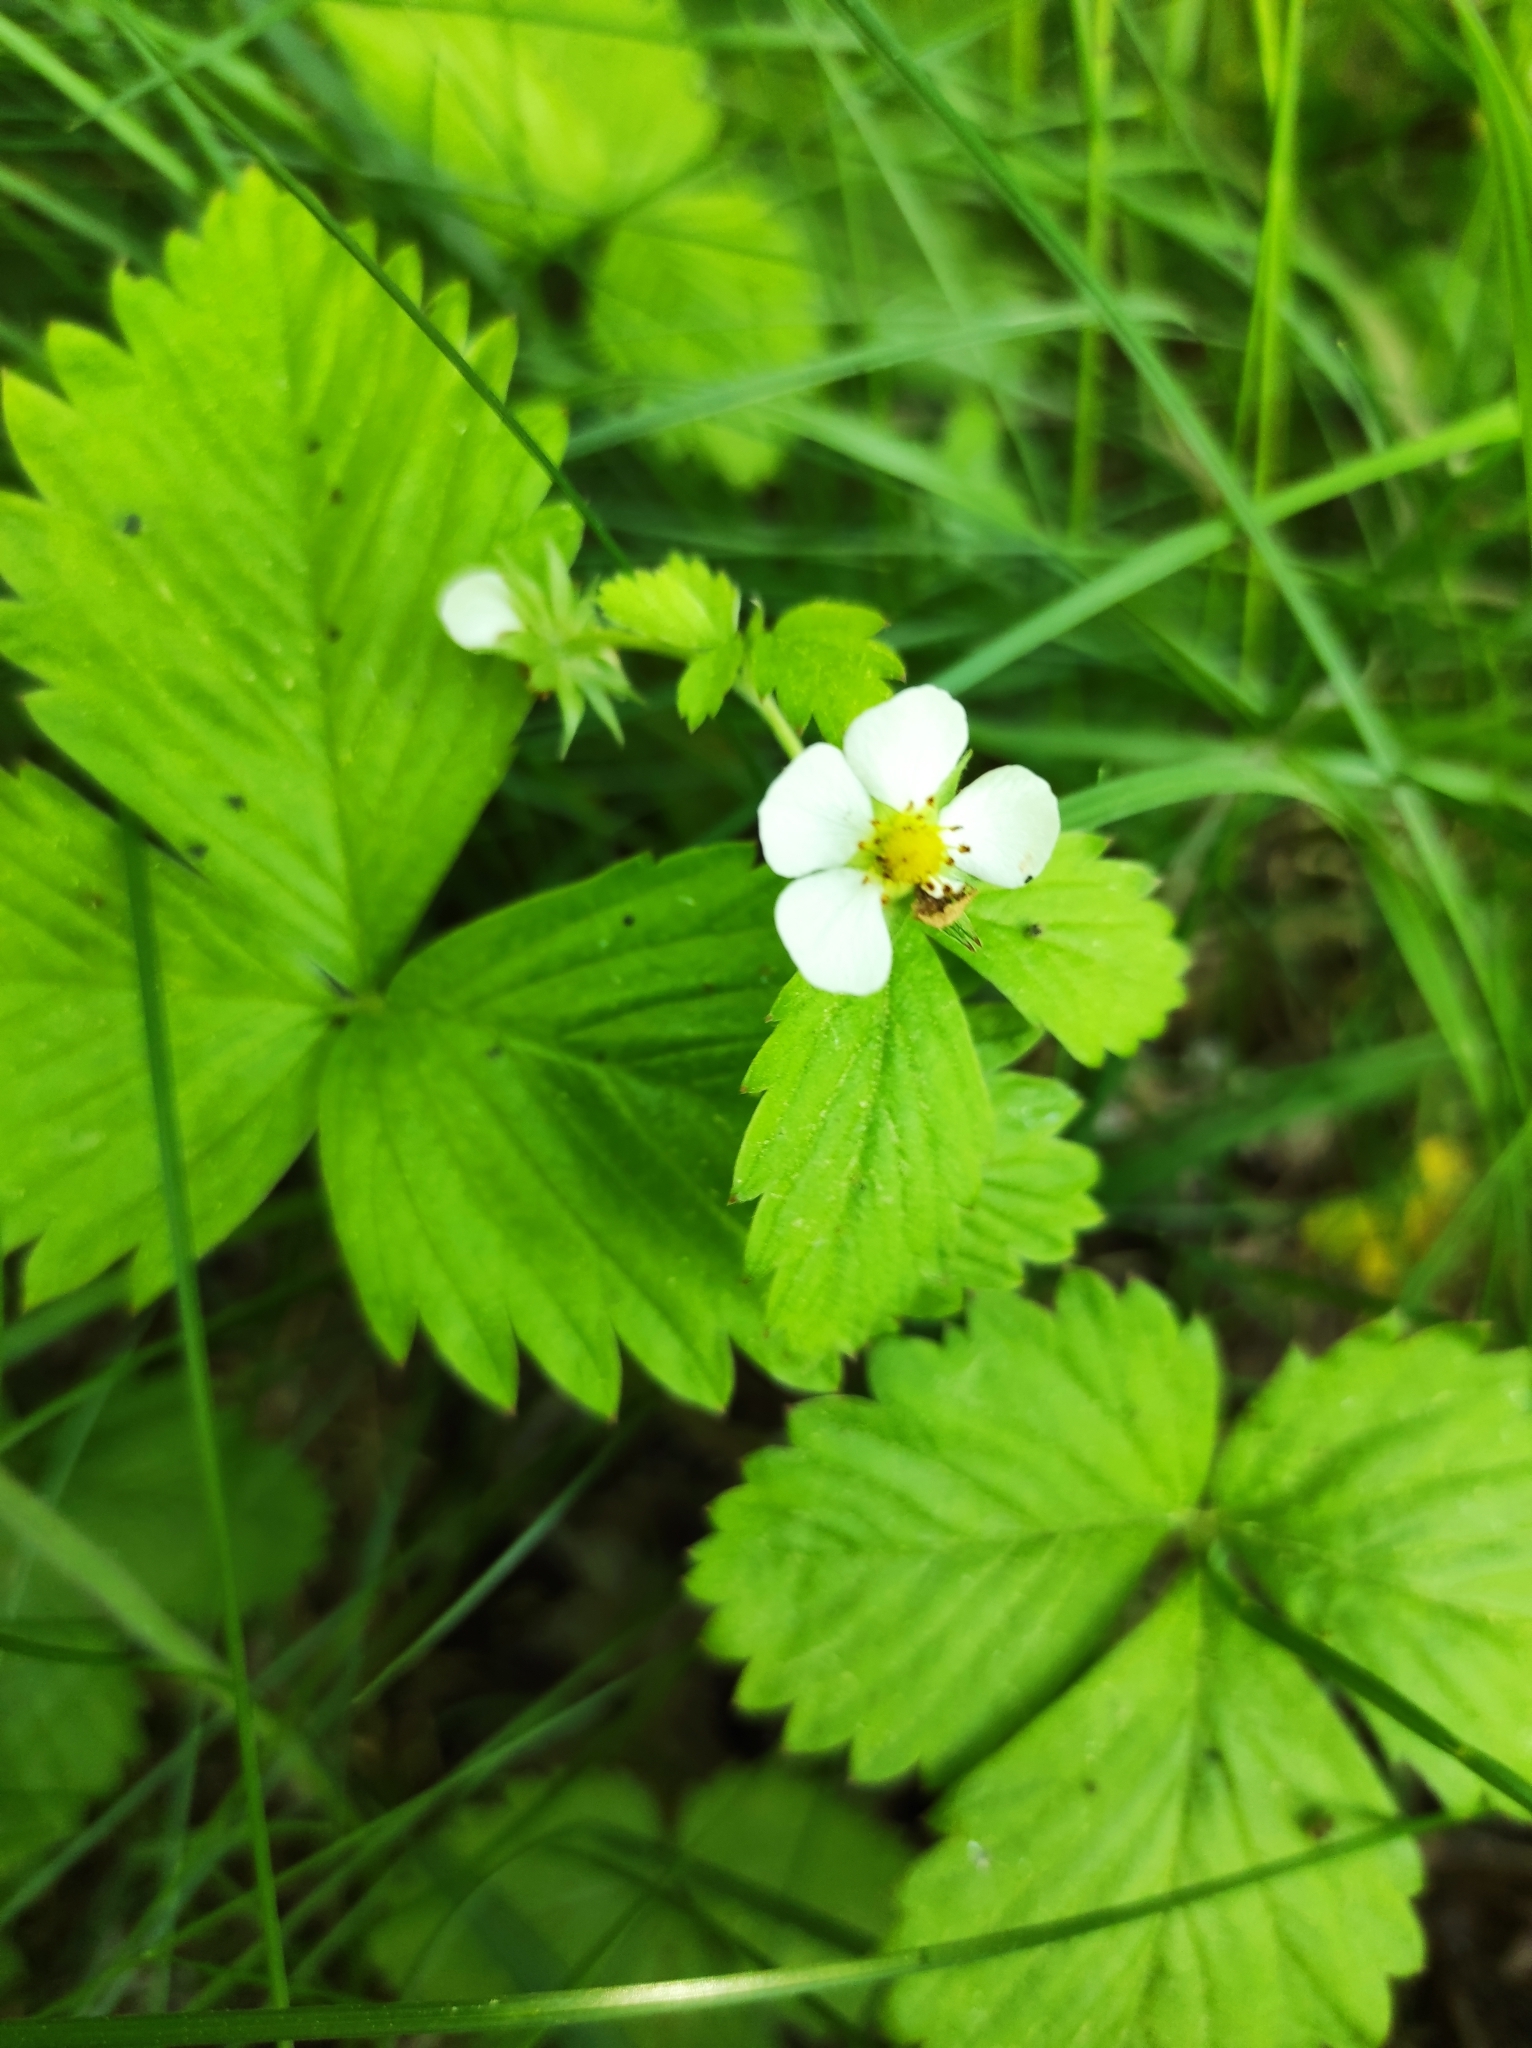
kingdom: Plantae
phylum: Tracheophyta
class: Magnoliopsida
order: Rosales
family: Rosaceae
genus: Fragaria
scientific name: Fragaria vesca
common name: Wild strawberry
